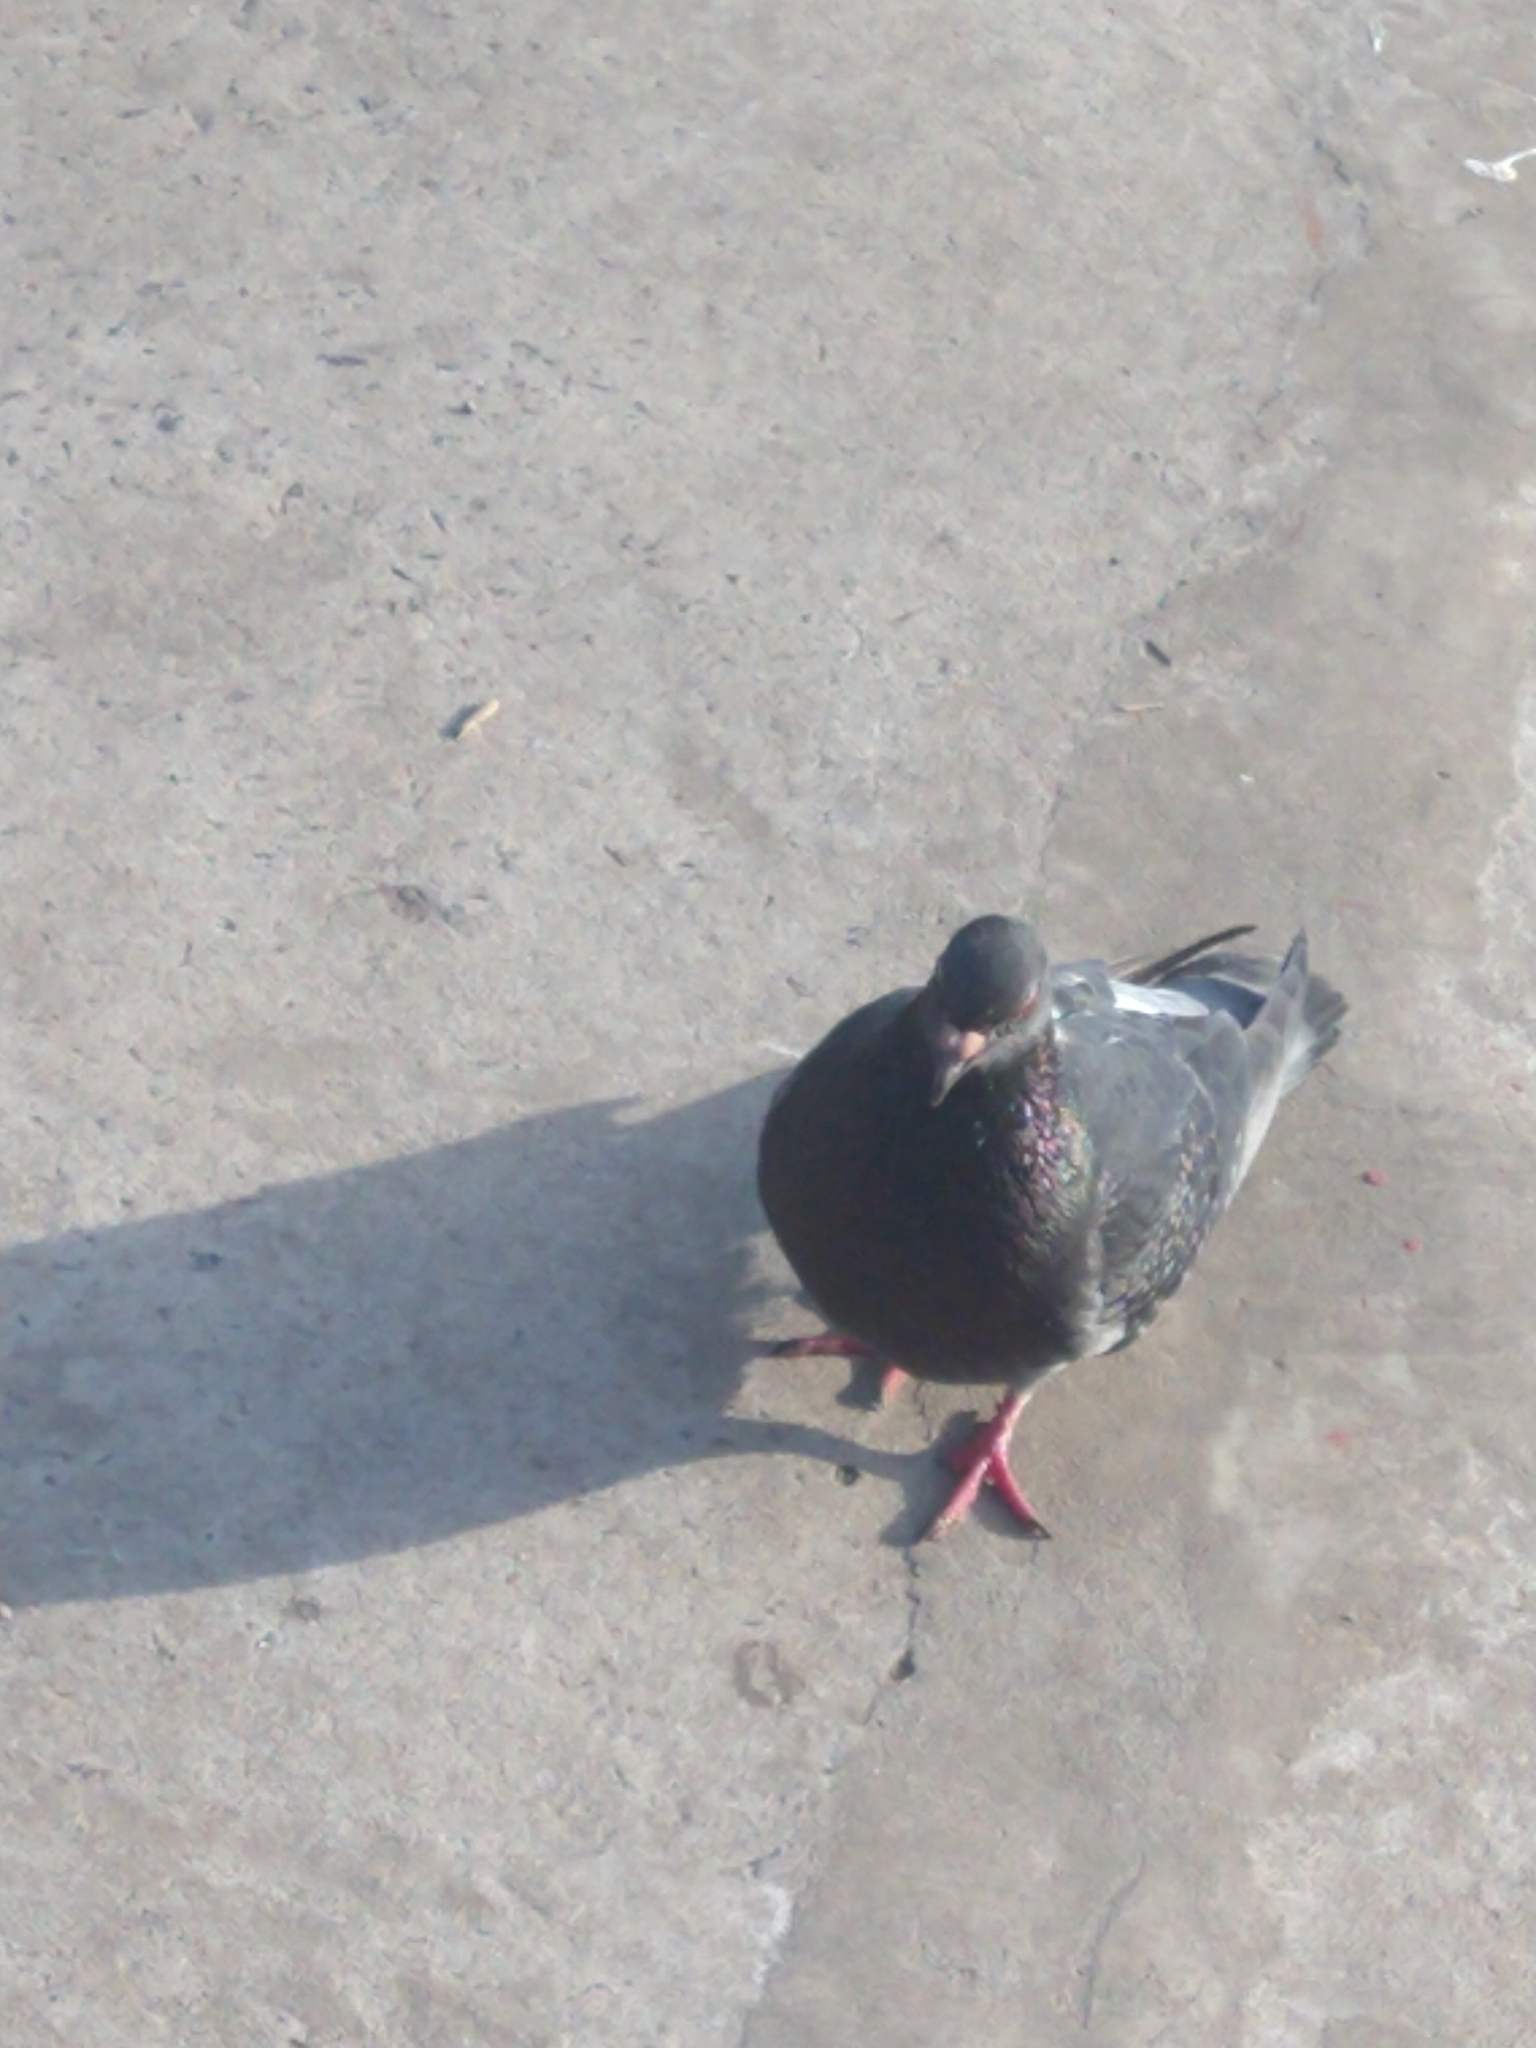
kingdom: Animalia
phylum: Chordata
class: Aves
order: Columbiformes
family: Columbidae
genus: Columba
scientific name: Columba livia
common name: Rock pigeon
